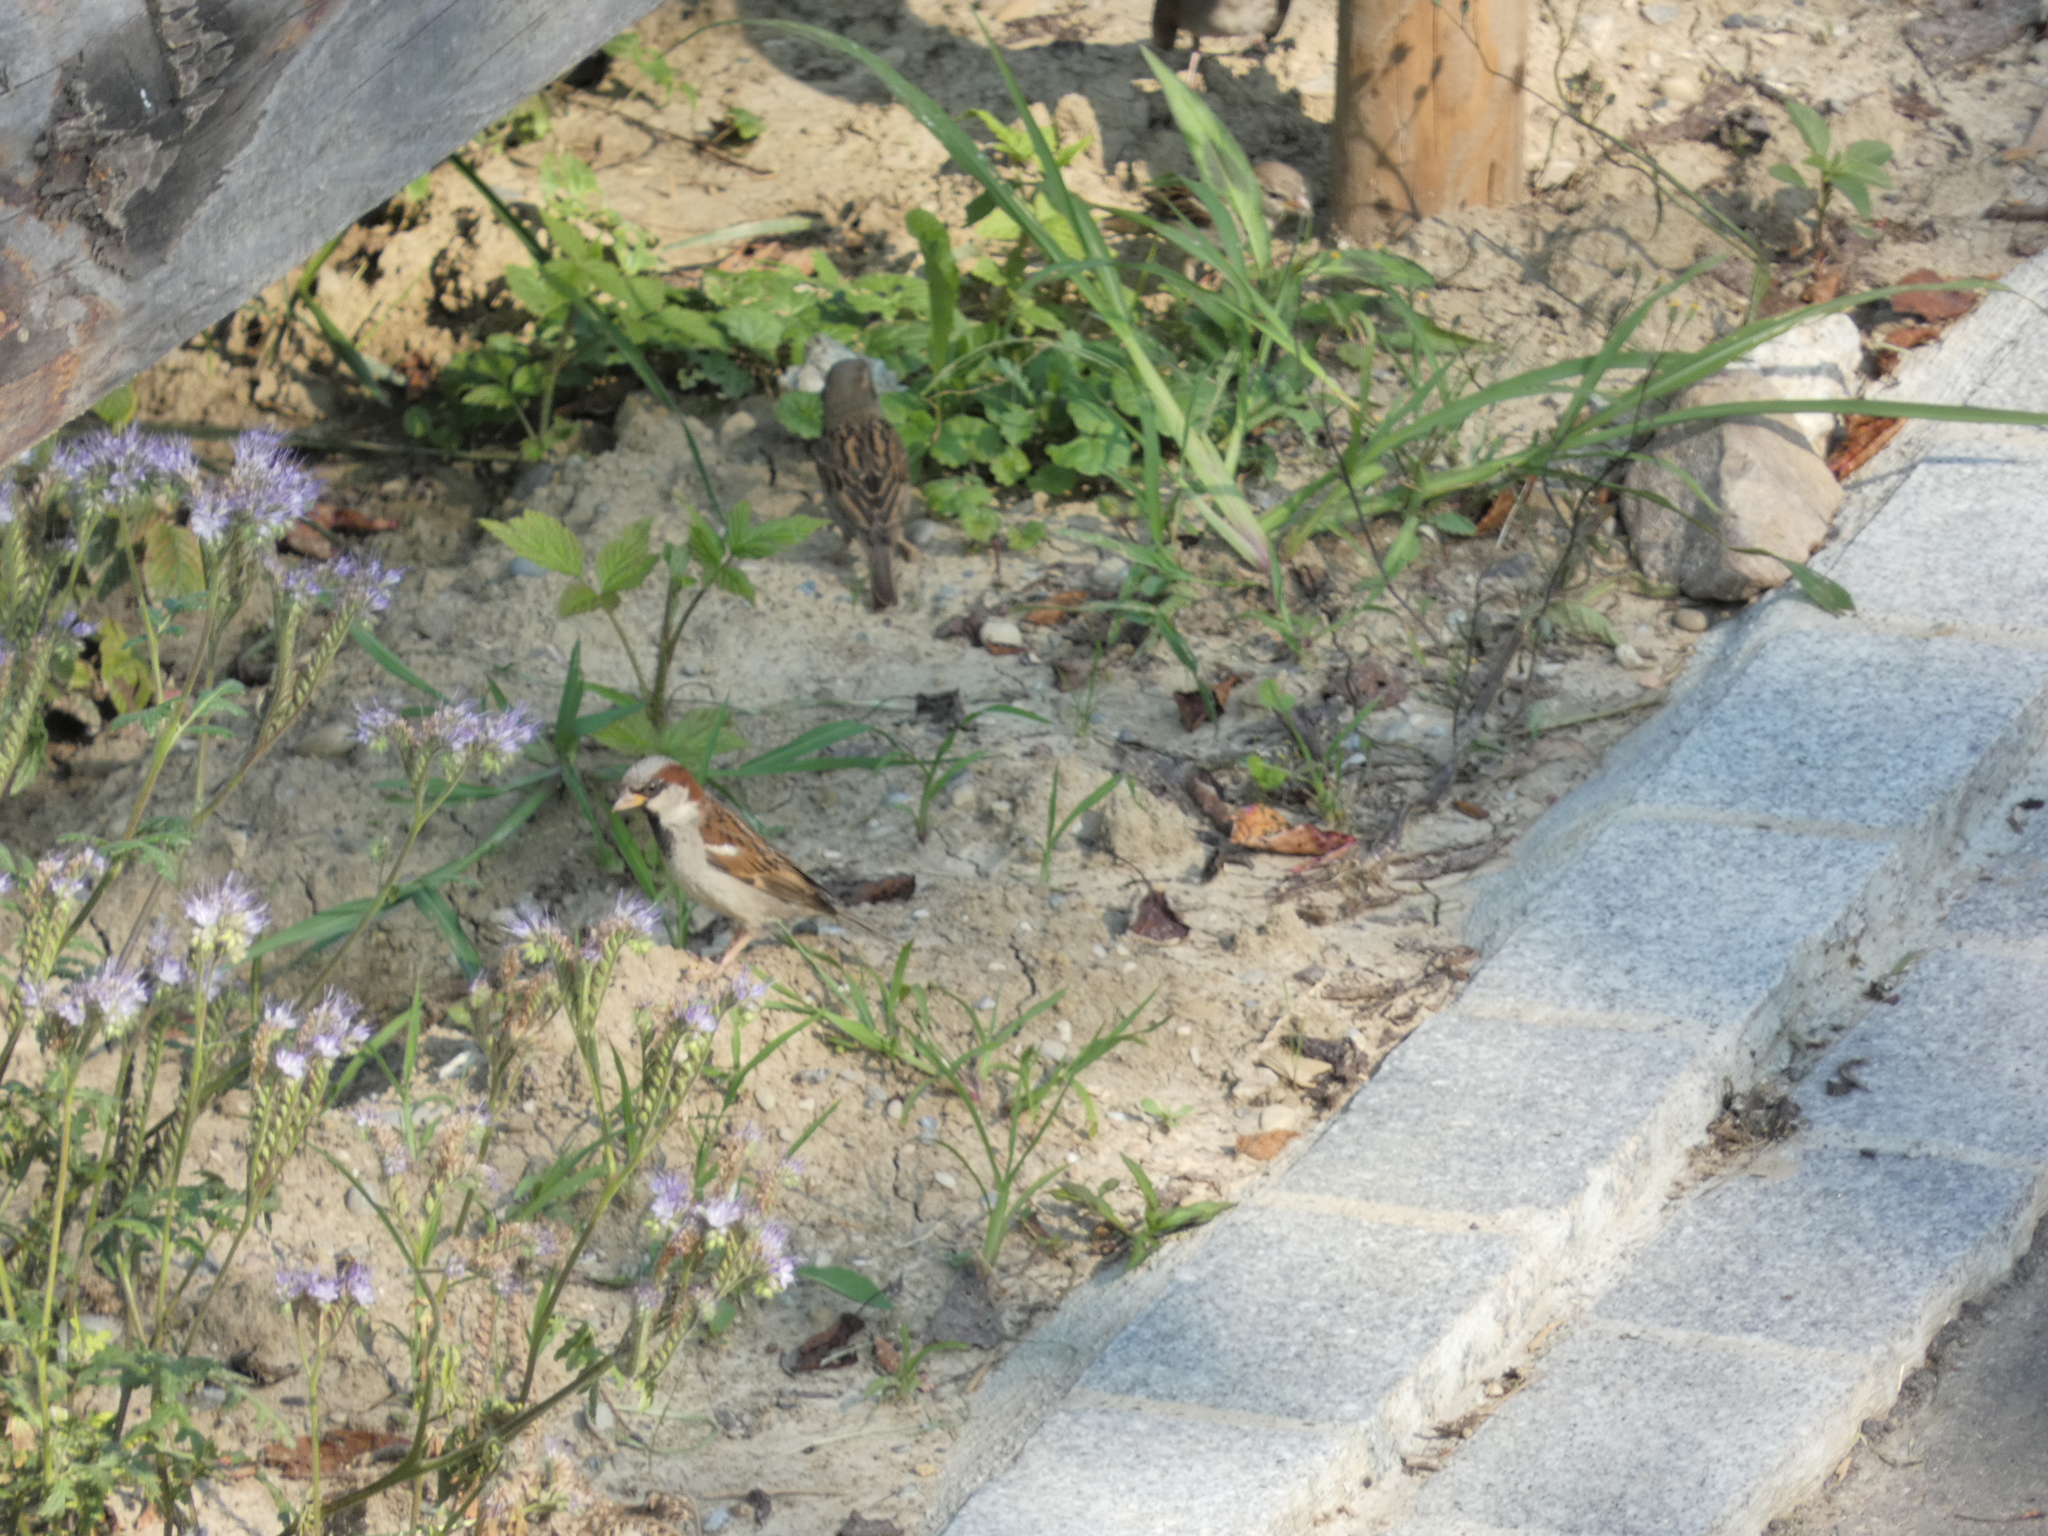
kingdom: Animalia
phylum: Chordata
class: Aves
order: Passeriformes
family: Passeridae
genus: Passer
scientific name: Passer domesticus
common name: House sparrow
